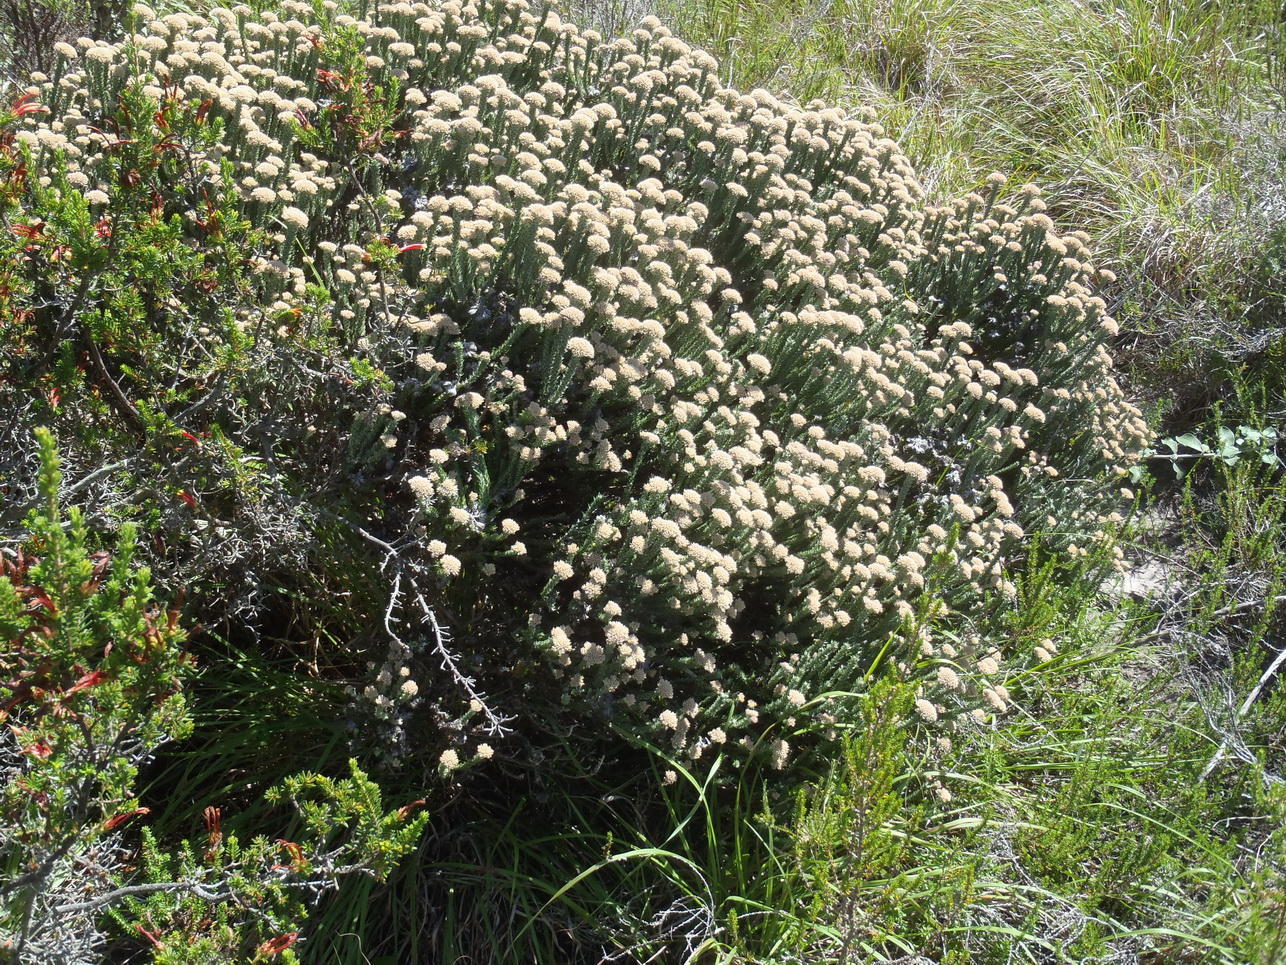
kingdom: Plantae
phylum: Tracheophyta
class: Magnoliopsida
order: Asterales
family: Asteraceae
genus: Metalasia
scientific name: Metalasia pungens
